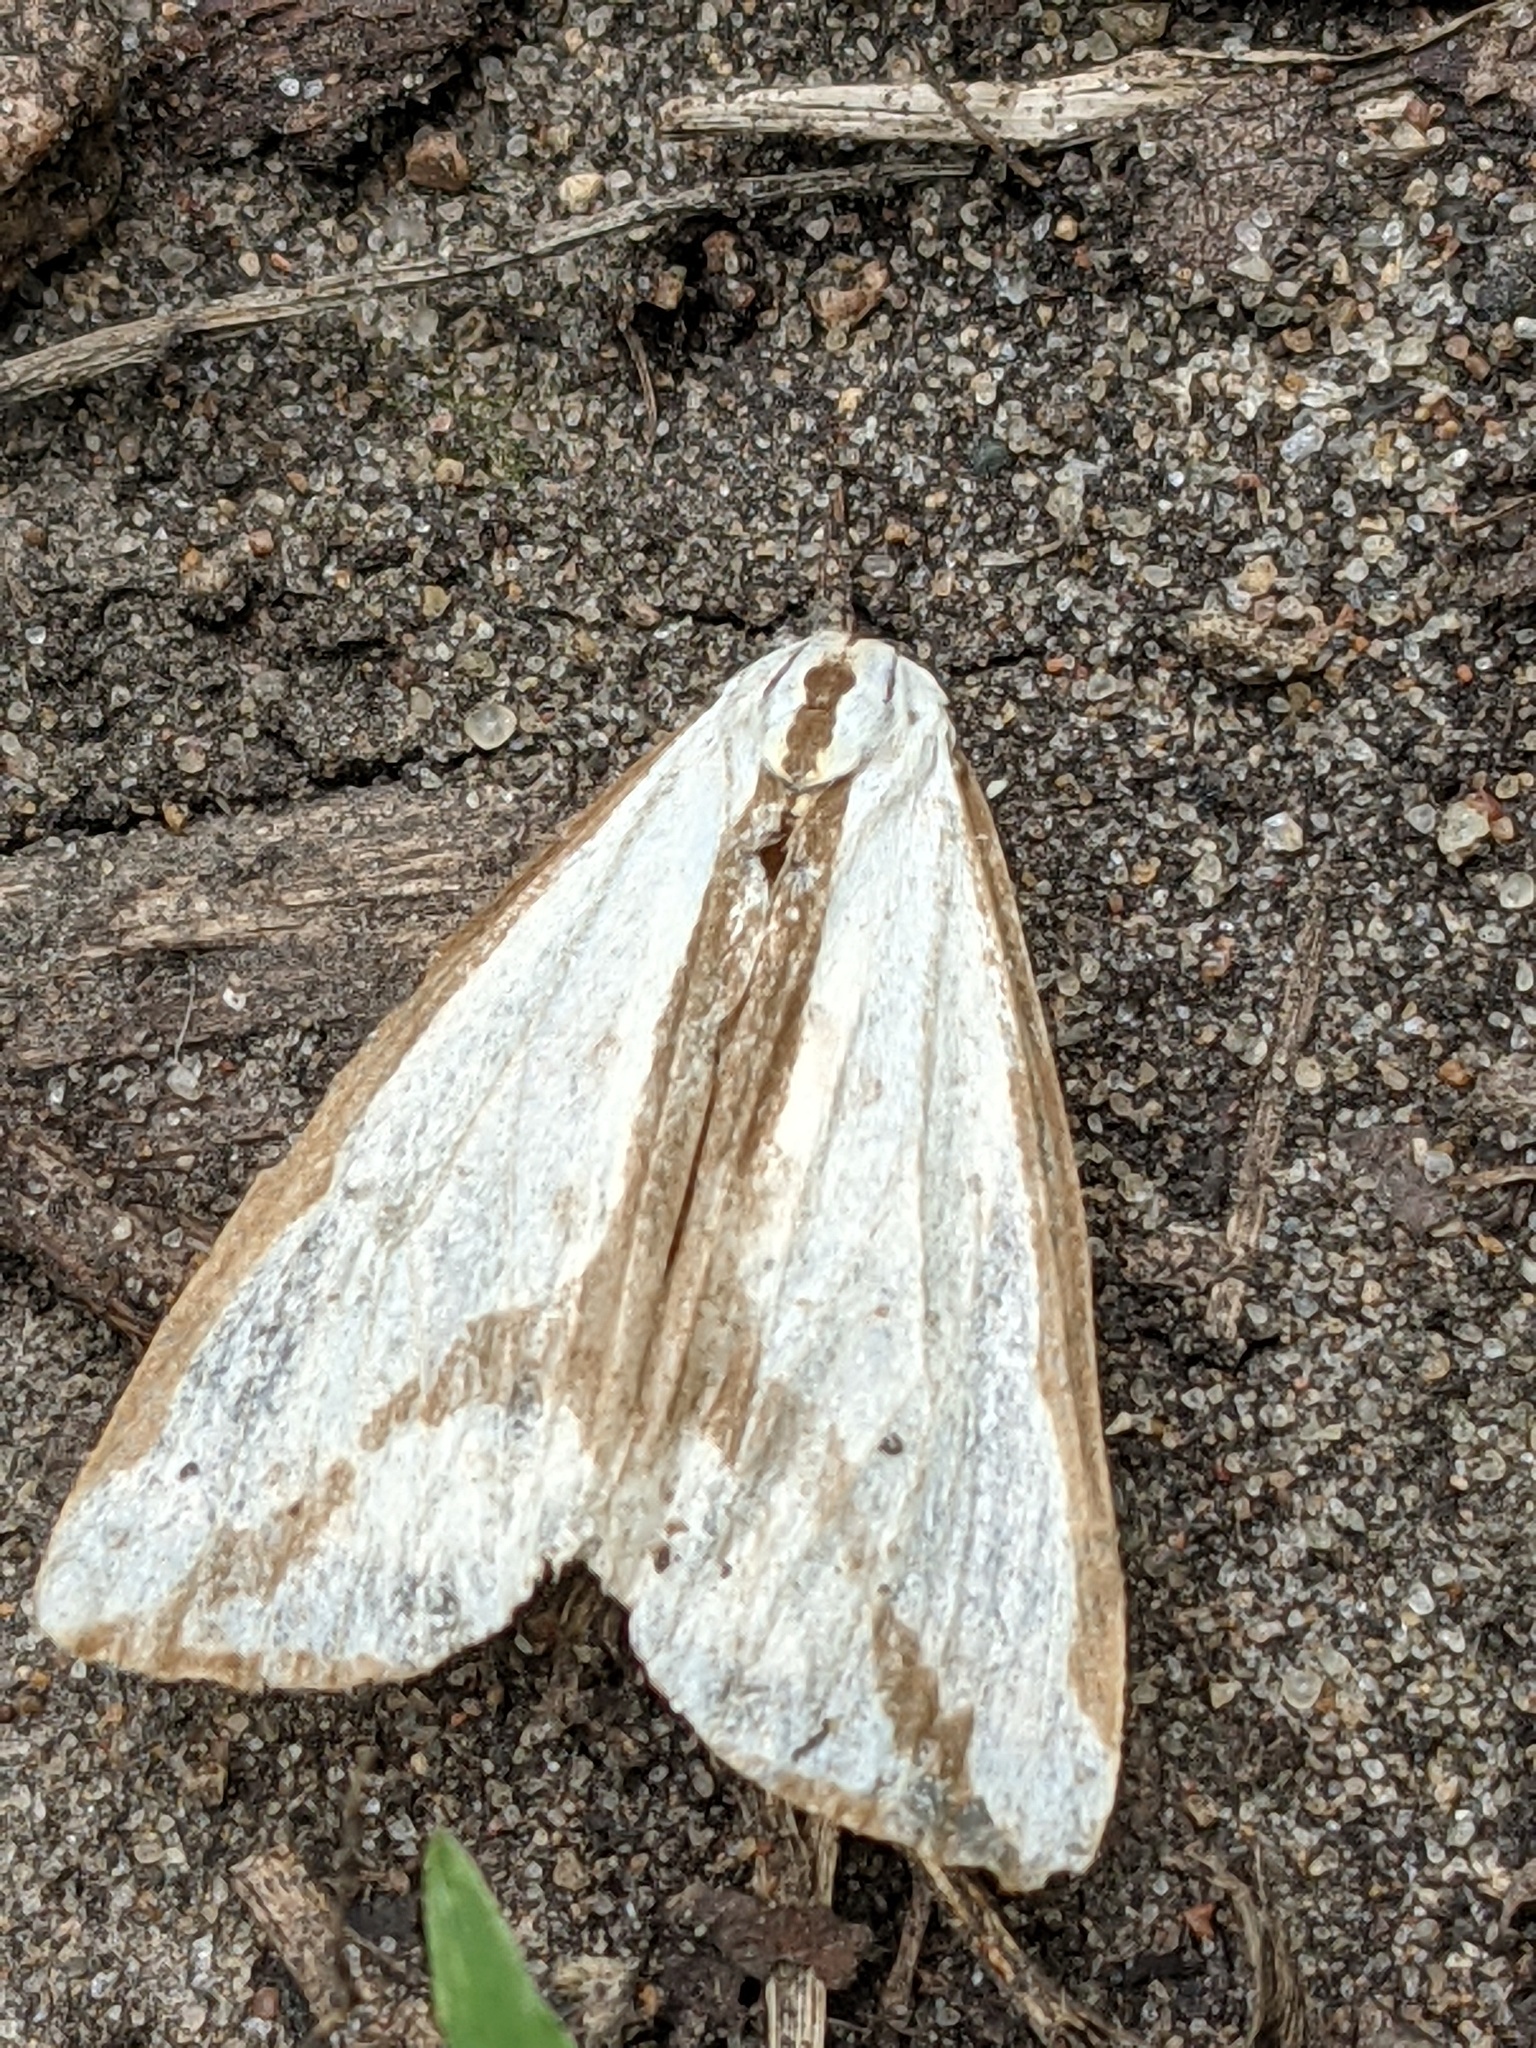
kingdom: Animalia
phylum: Arthropoda
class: Insecta
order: Lepidoptera
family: Erebidae
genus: Haploa
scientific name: Haploa lecontei
